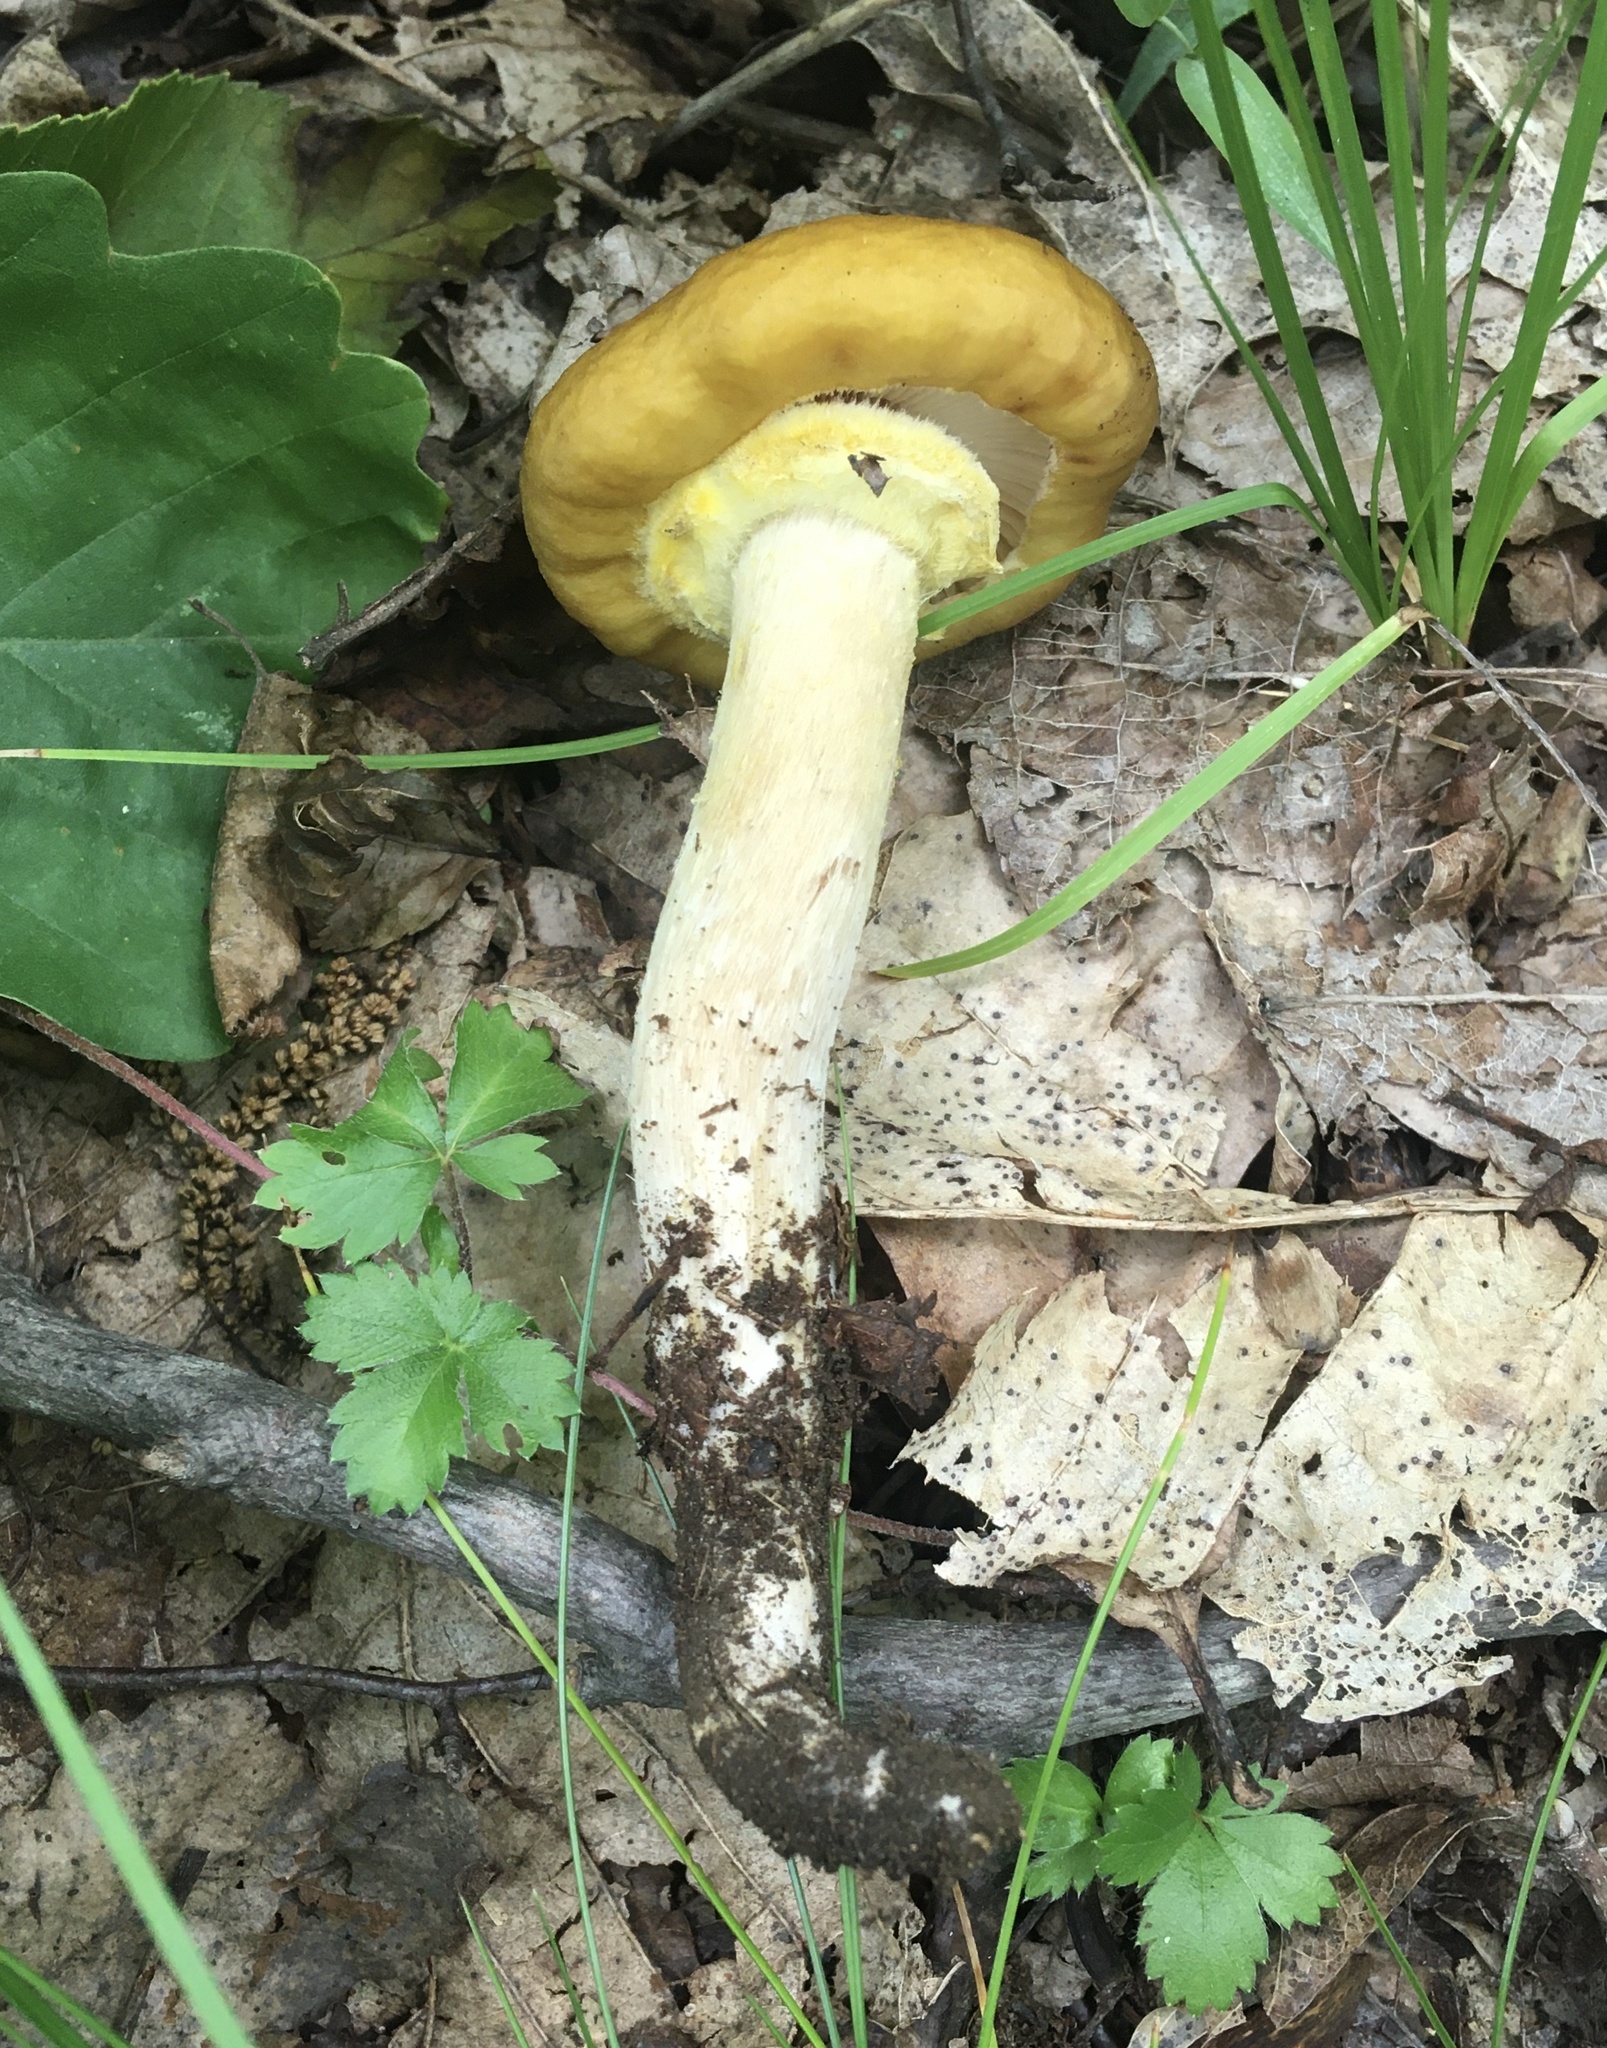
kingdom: Fungi
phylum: Basidiomycota
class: Agaricomycetes
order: Agaricales
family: Physalacriaceae
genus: Armillaria
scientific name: Armillaria mellea
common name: Honey fungus
